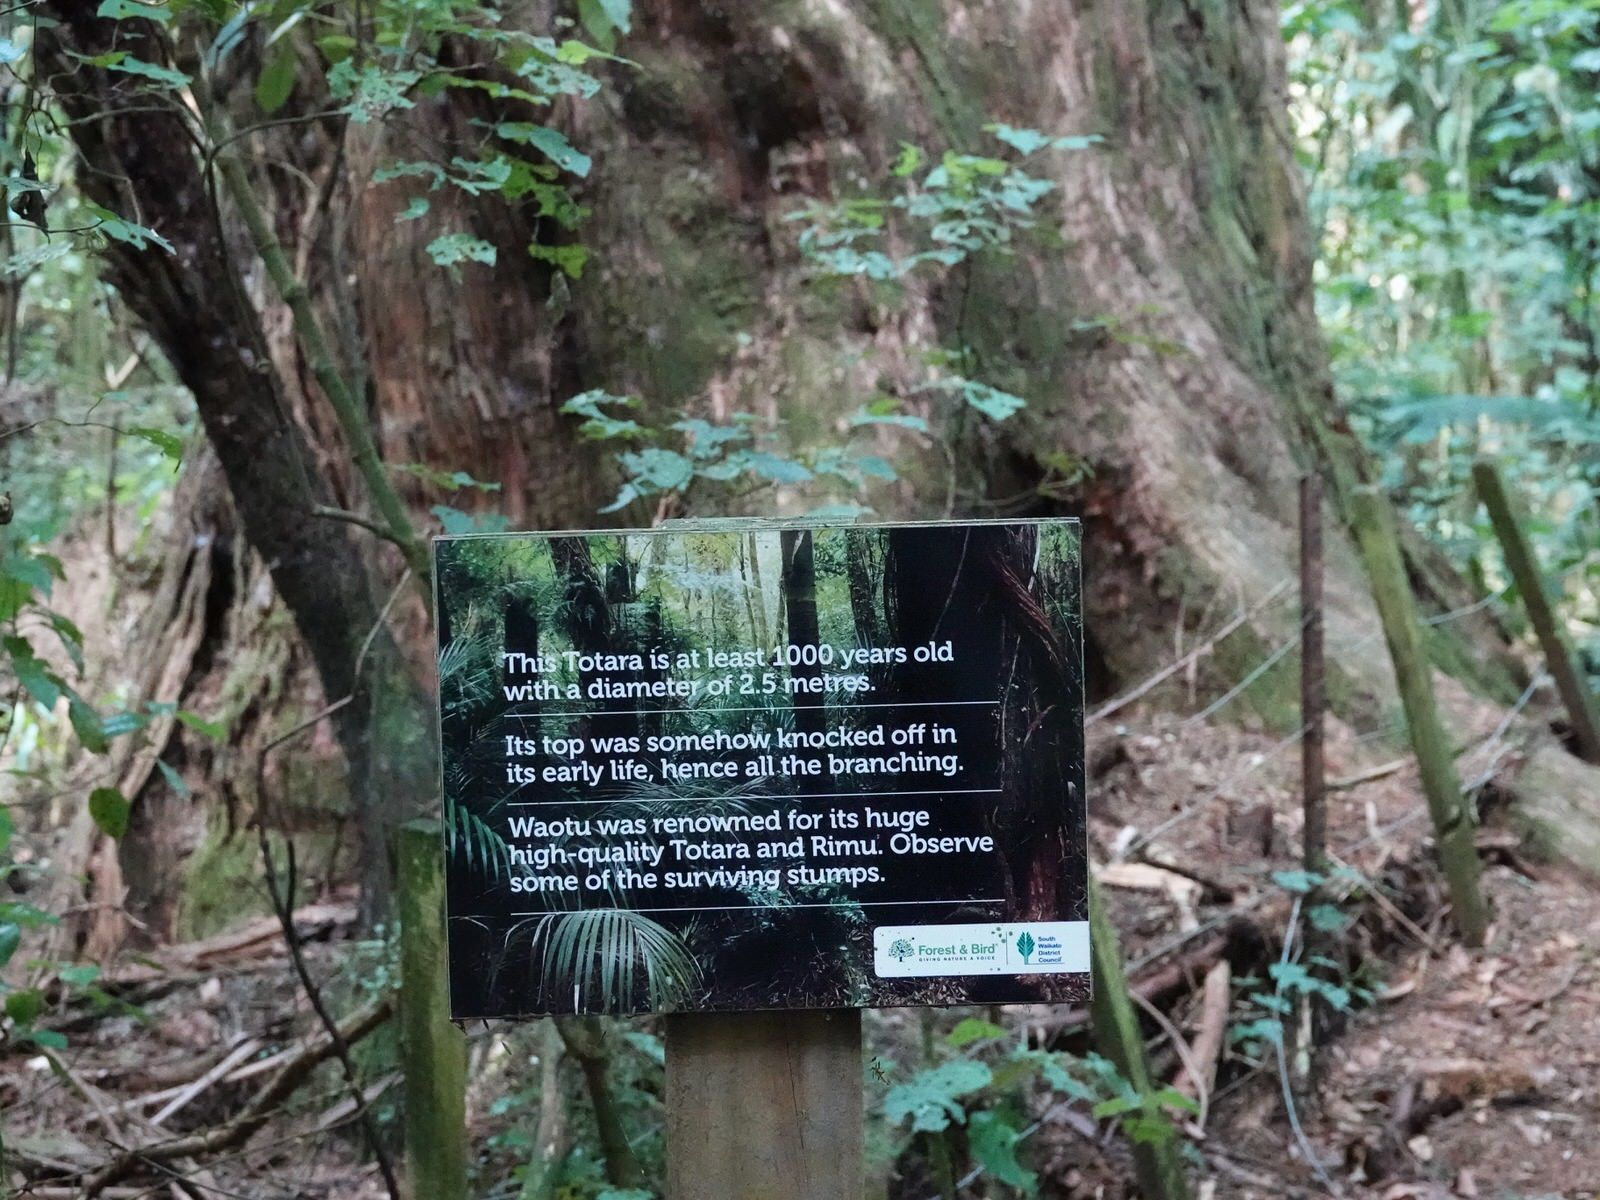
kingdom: Plantae
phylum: Tracheophyta
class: Pinopsida
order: Pinales
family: Podocarpaceae
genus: Podocarpus
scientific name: Podocarpus totara
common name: Totara
